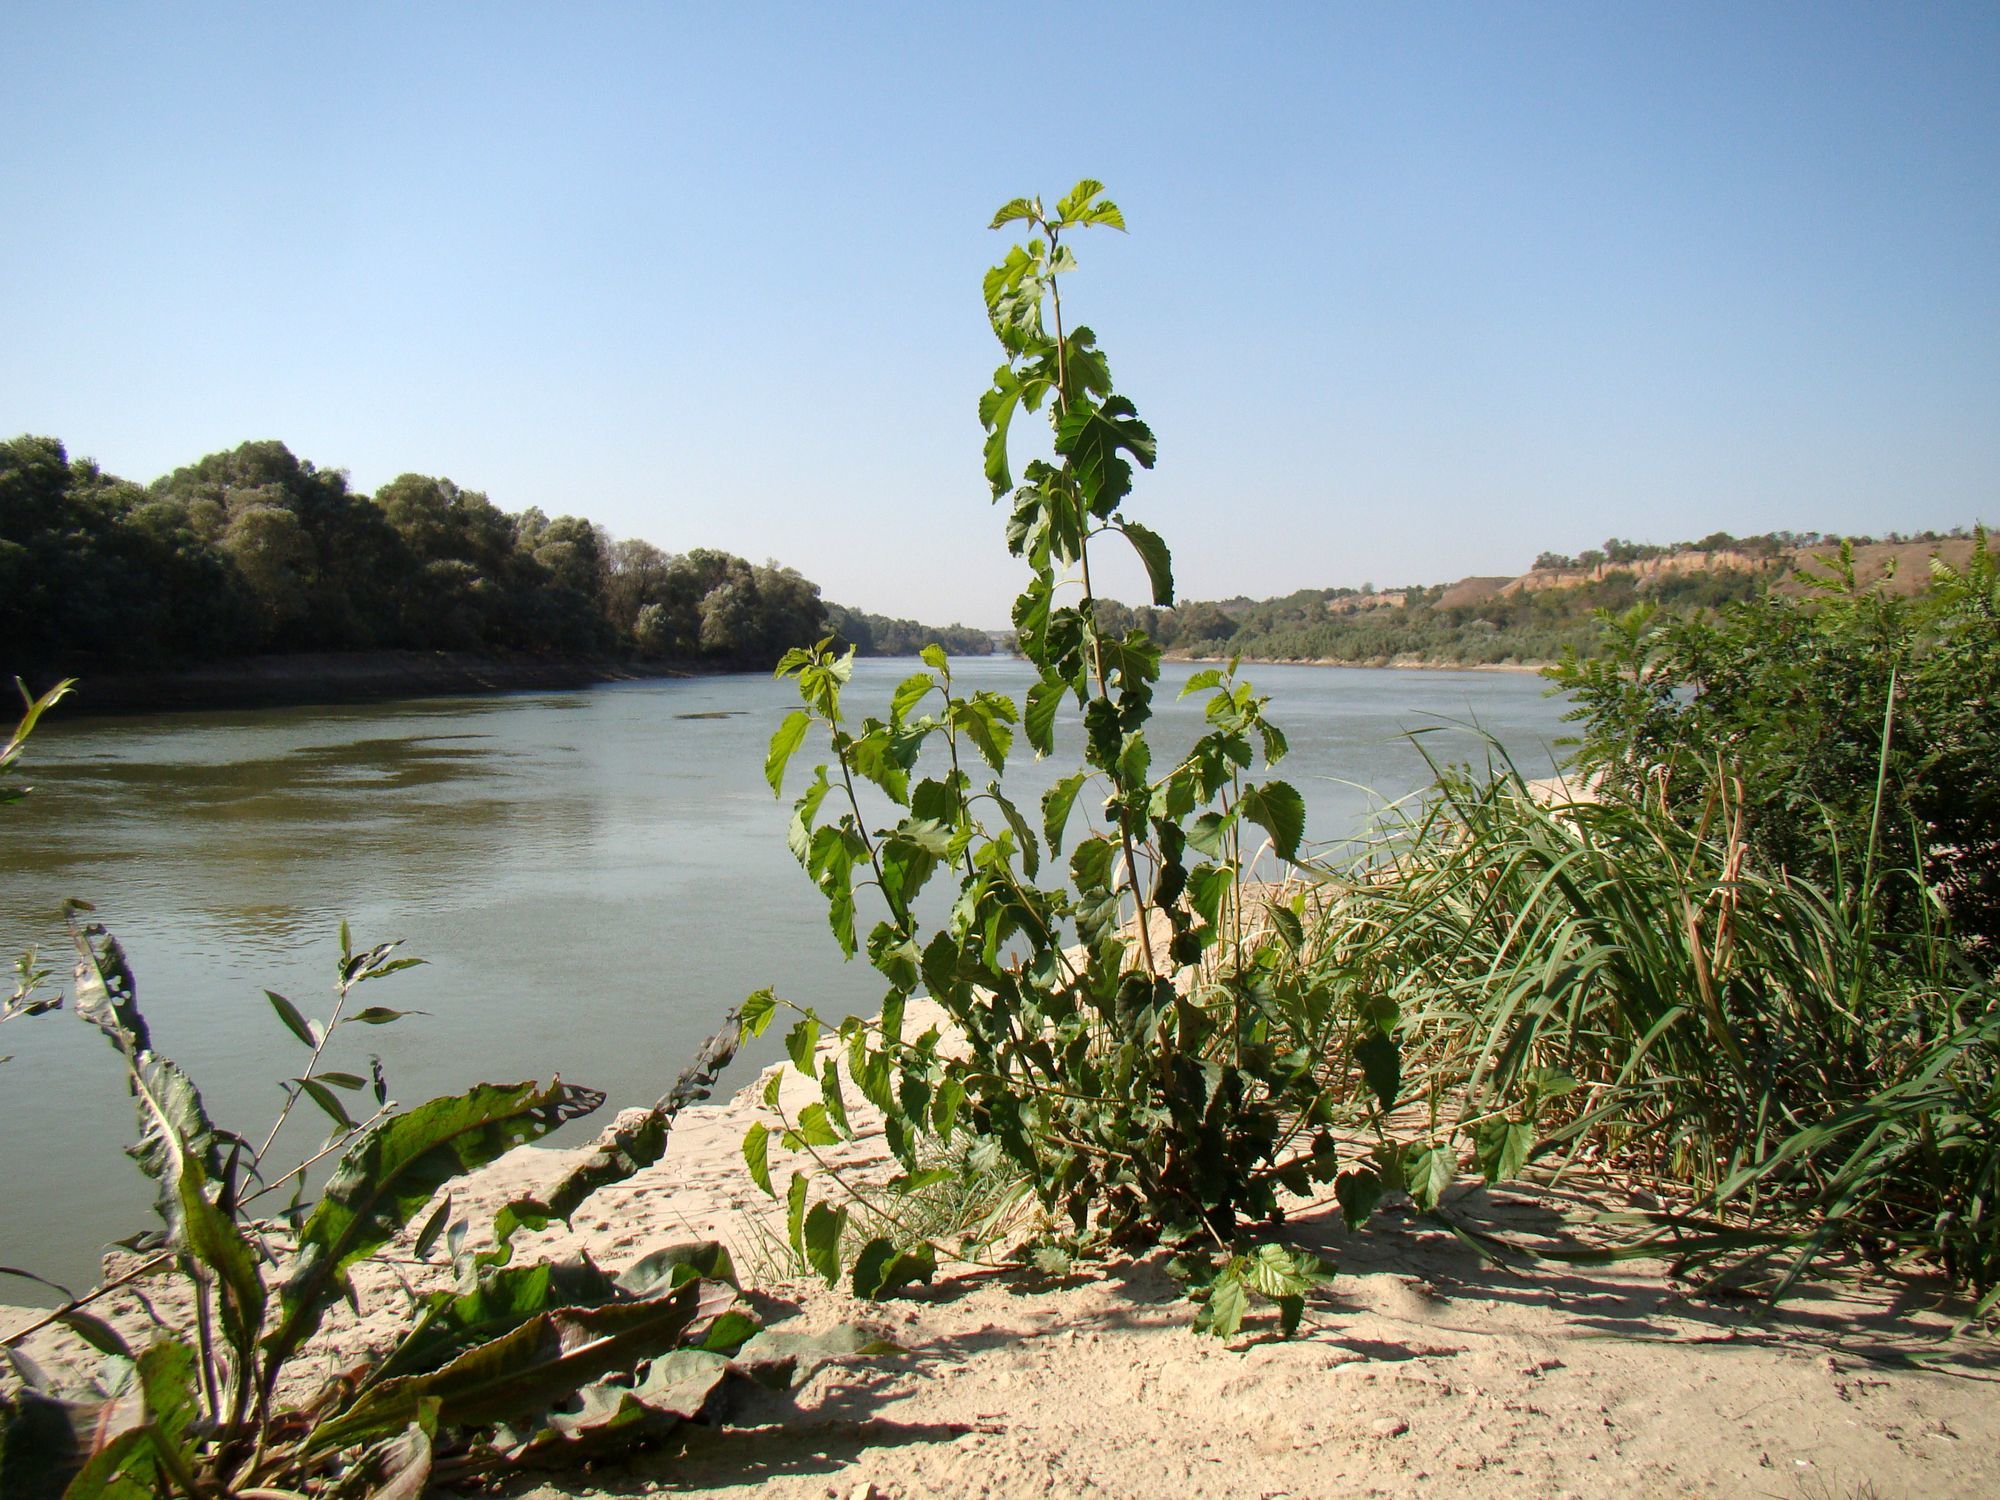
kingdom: Plantae
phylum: Tracheophyta
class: Magnoliopsida
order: Rosales
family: Moraceae
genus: Morus
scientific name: Morus alba
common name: White mulberry
